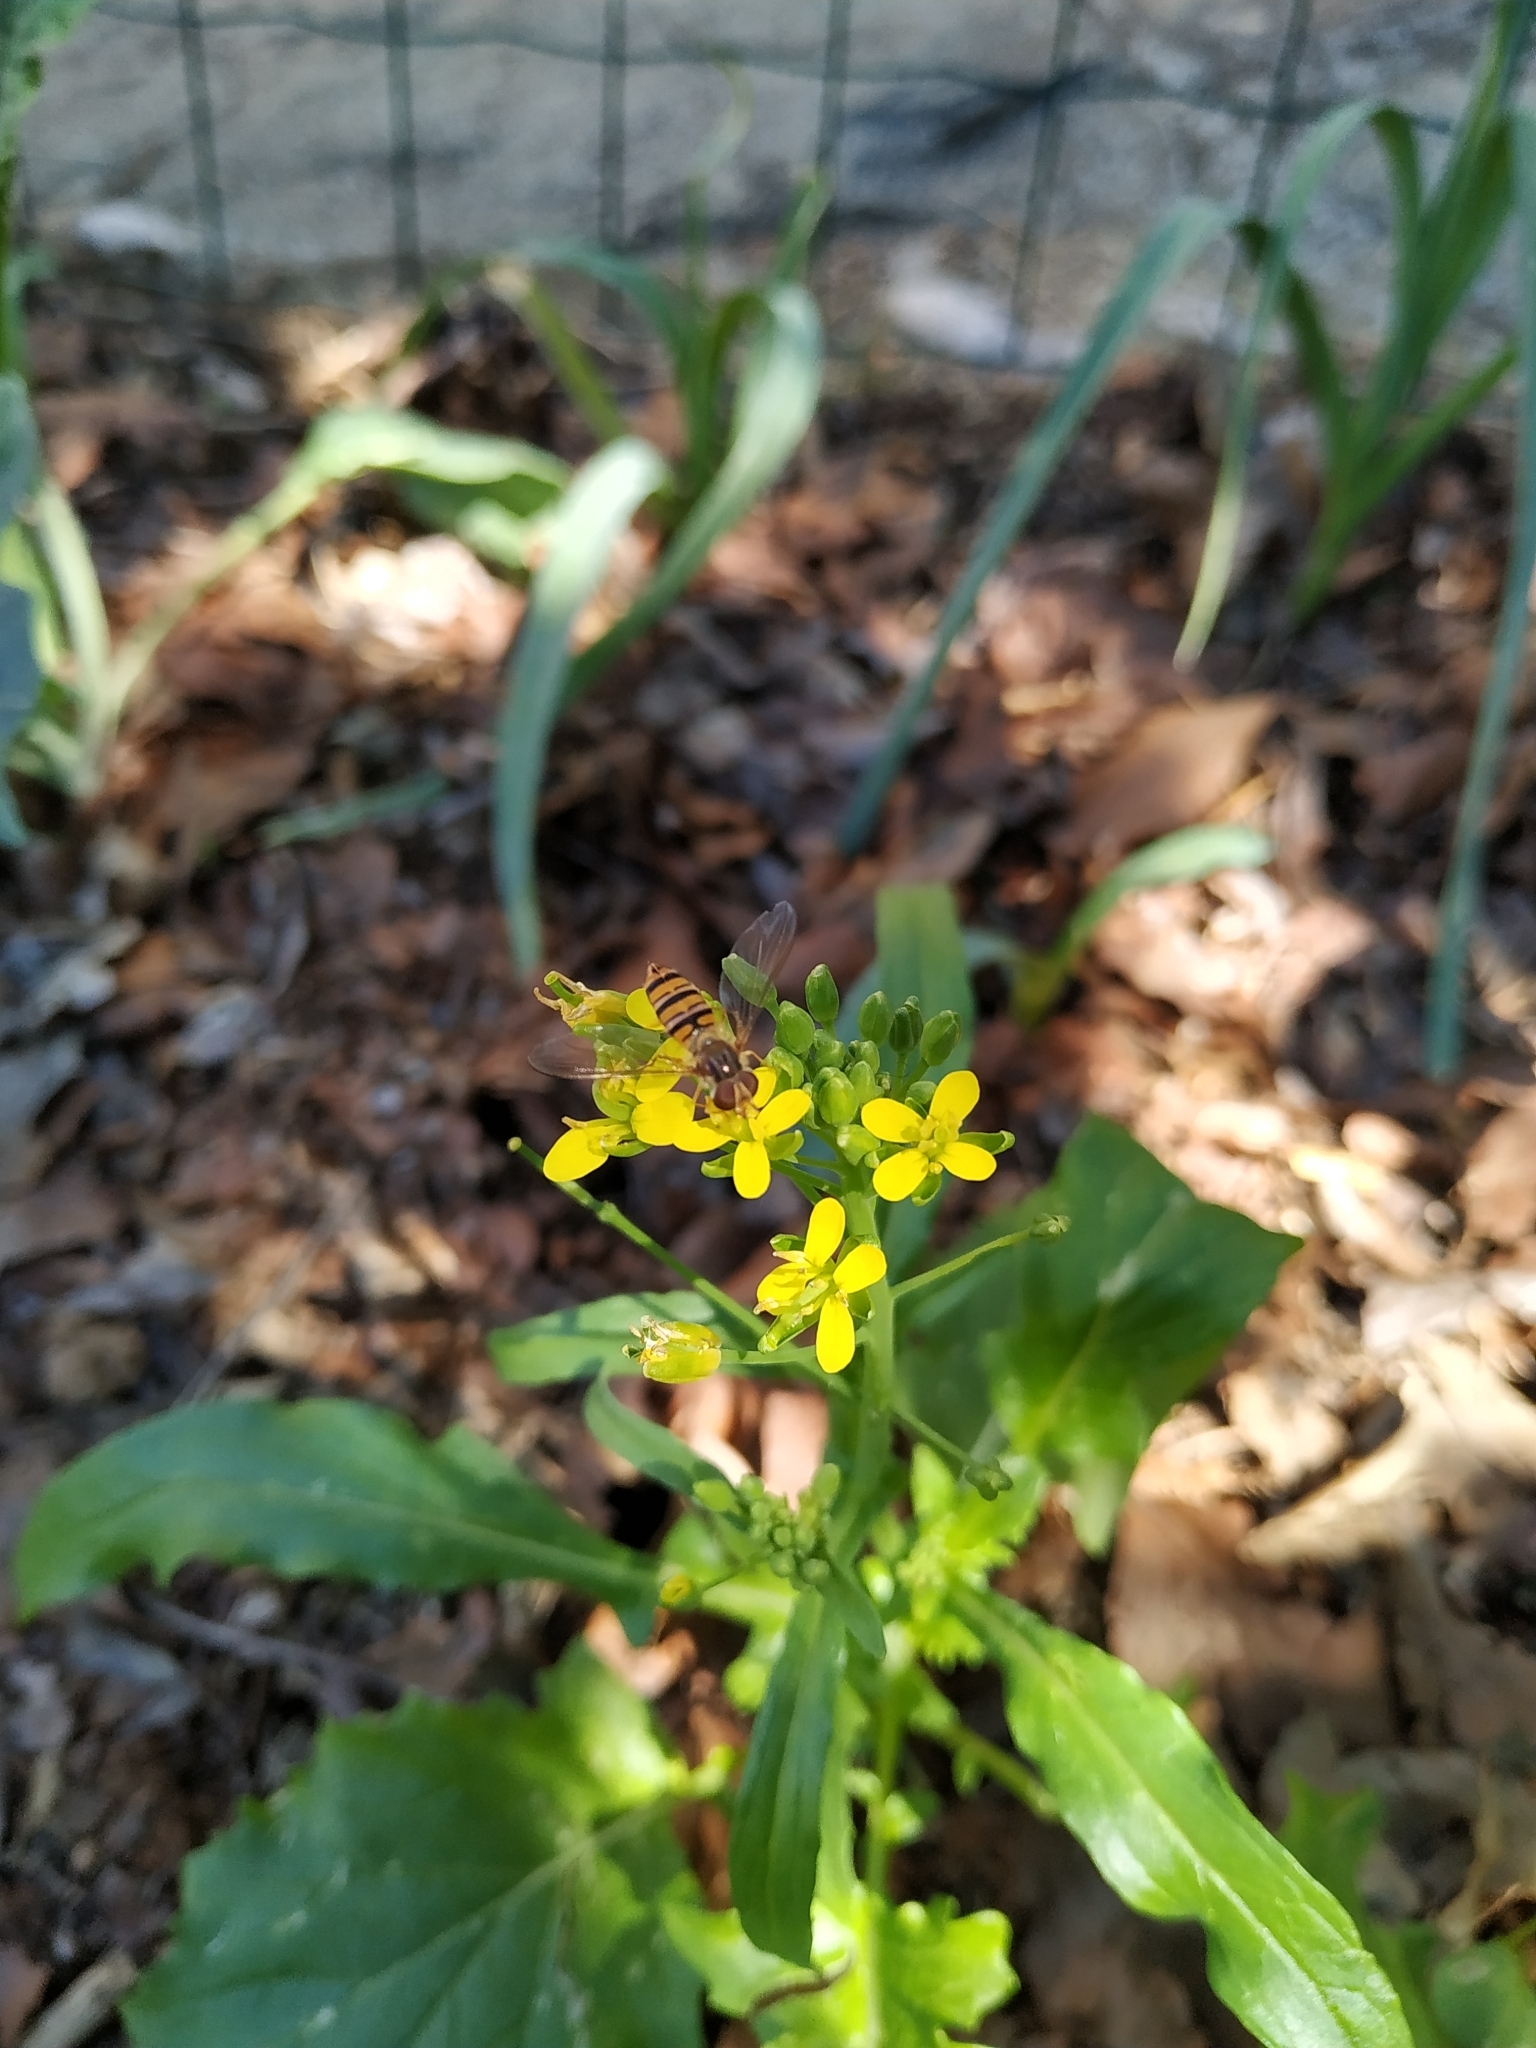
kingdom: Animalia
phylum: Arthropoda
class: Insecta
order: Diptera
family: Syrphidae
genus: Episyrphus
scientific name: Episyrphus balteatus
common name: Marmalade hoverfly
